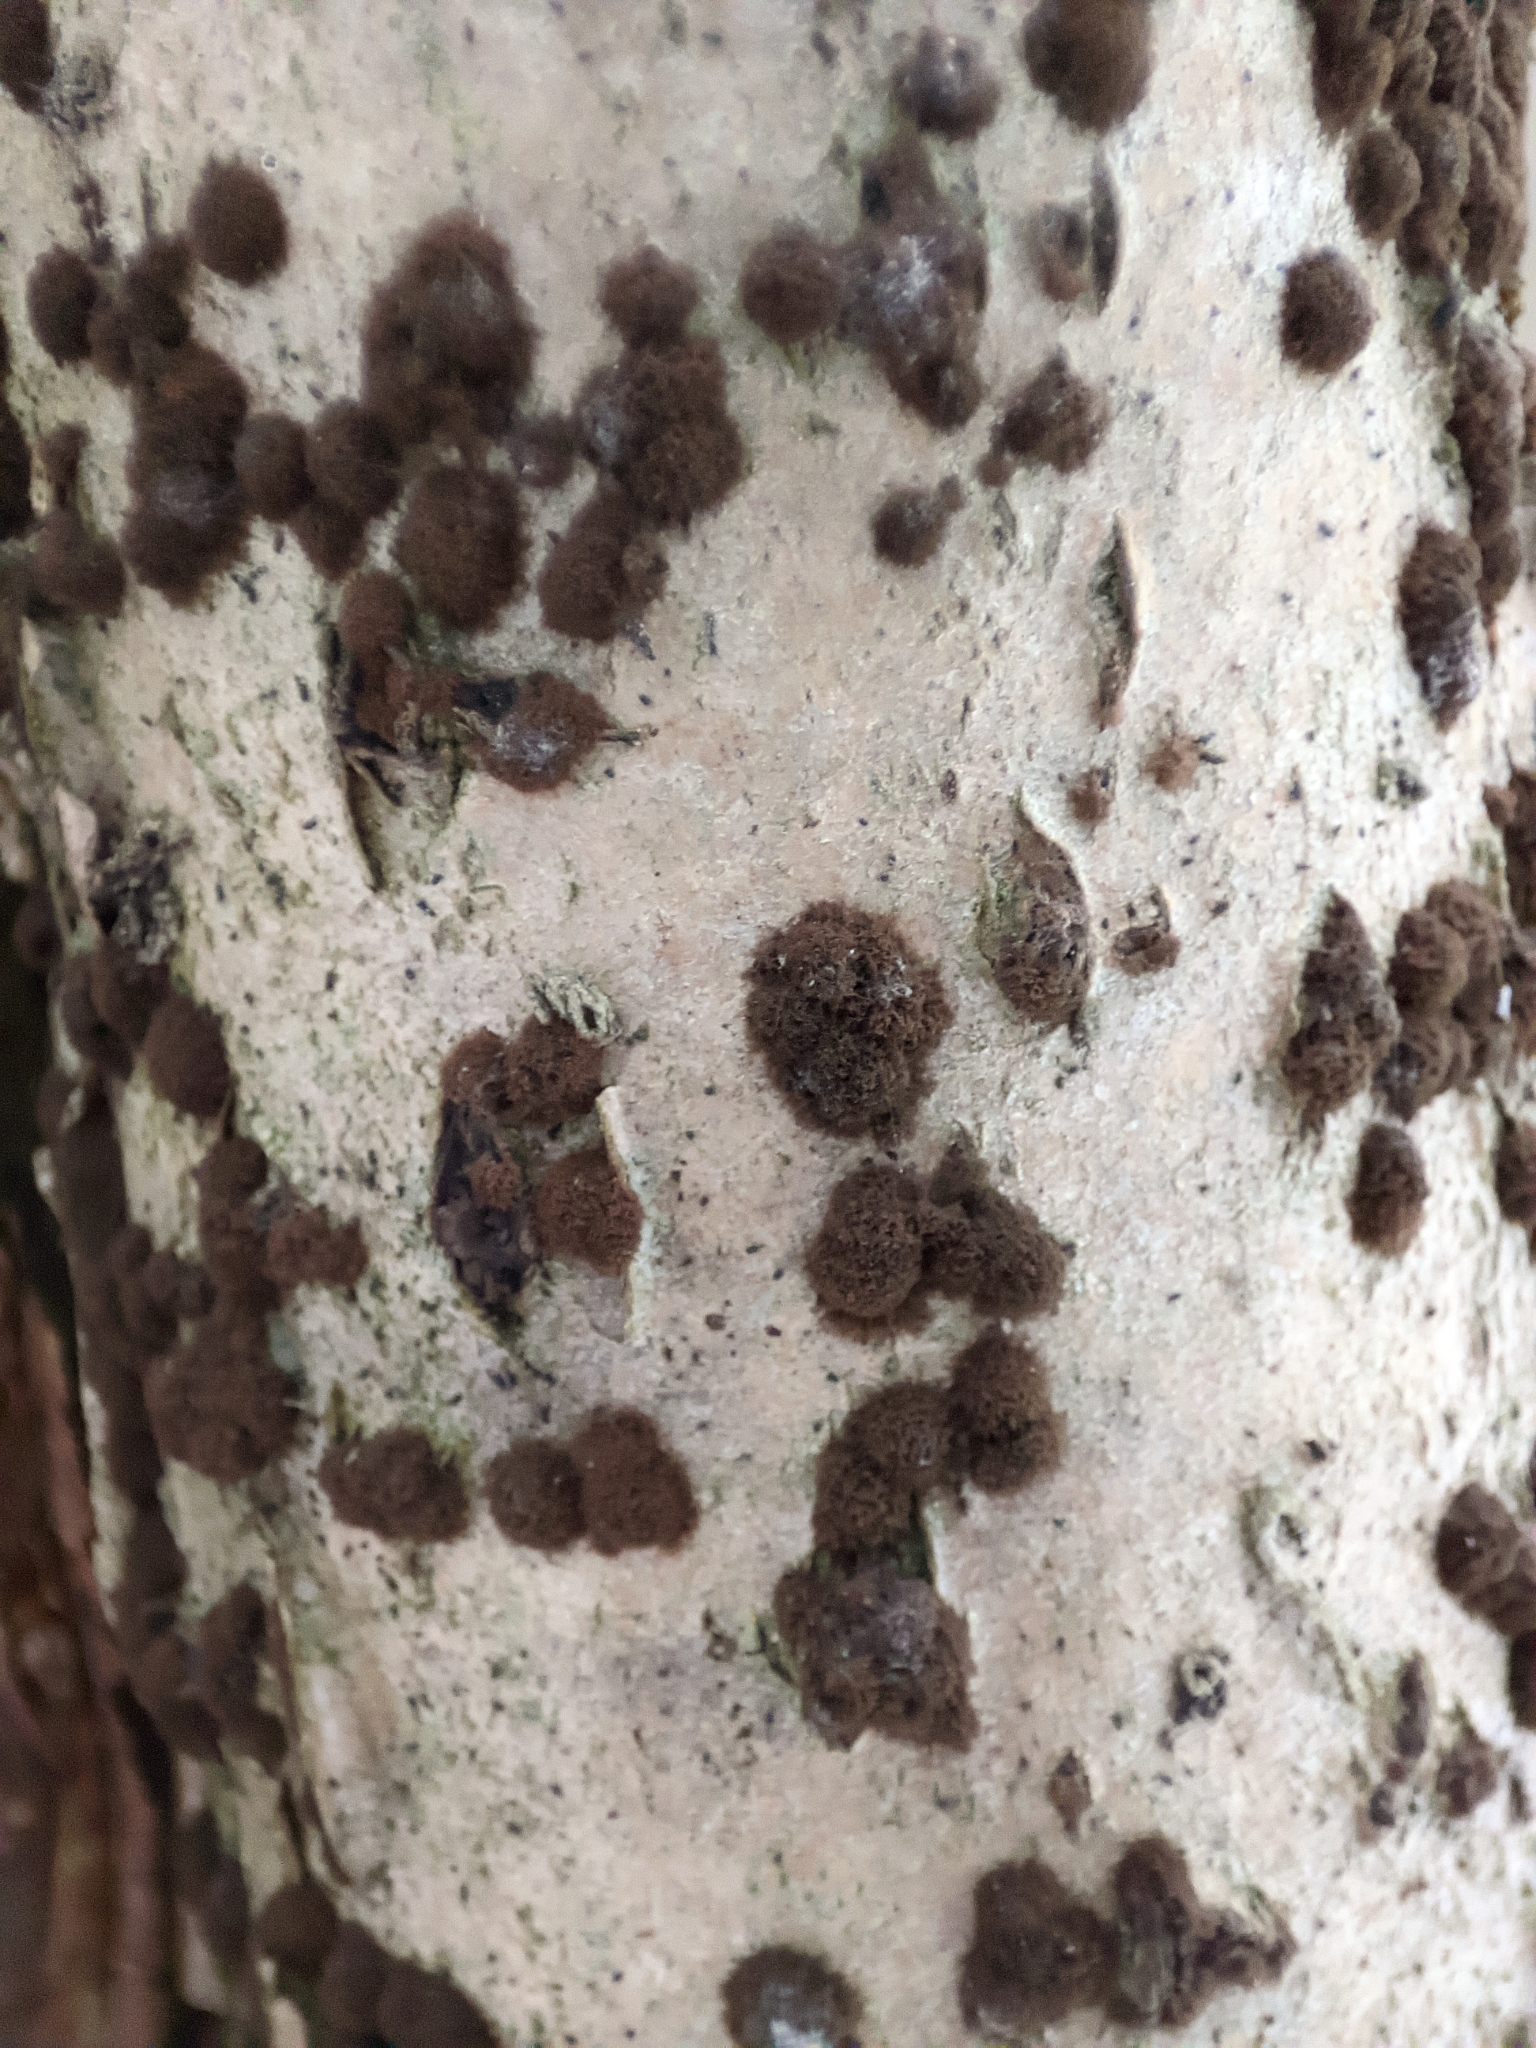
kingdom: Fungi
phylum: Ascomycota
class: Sordariomycetes
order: Xylariales
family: Hypoxylaceae
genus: Hypoxylon
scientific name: Hypoxylon fuscum
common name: Hazel woodwart
